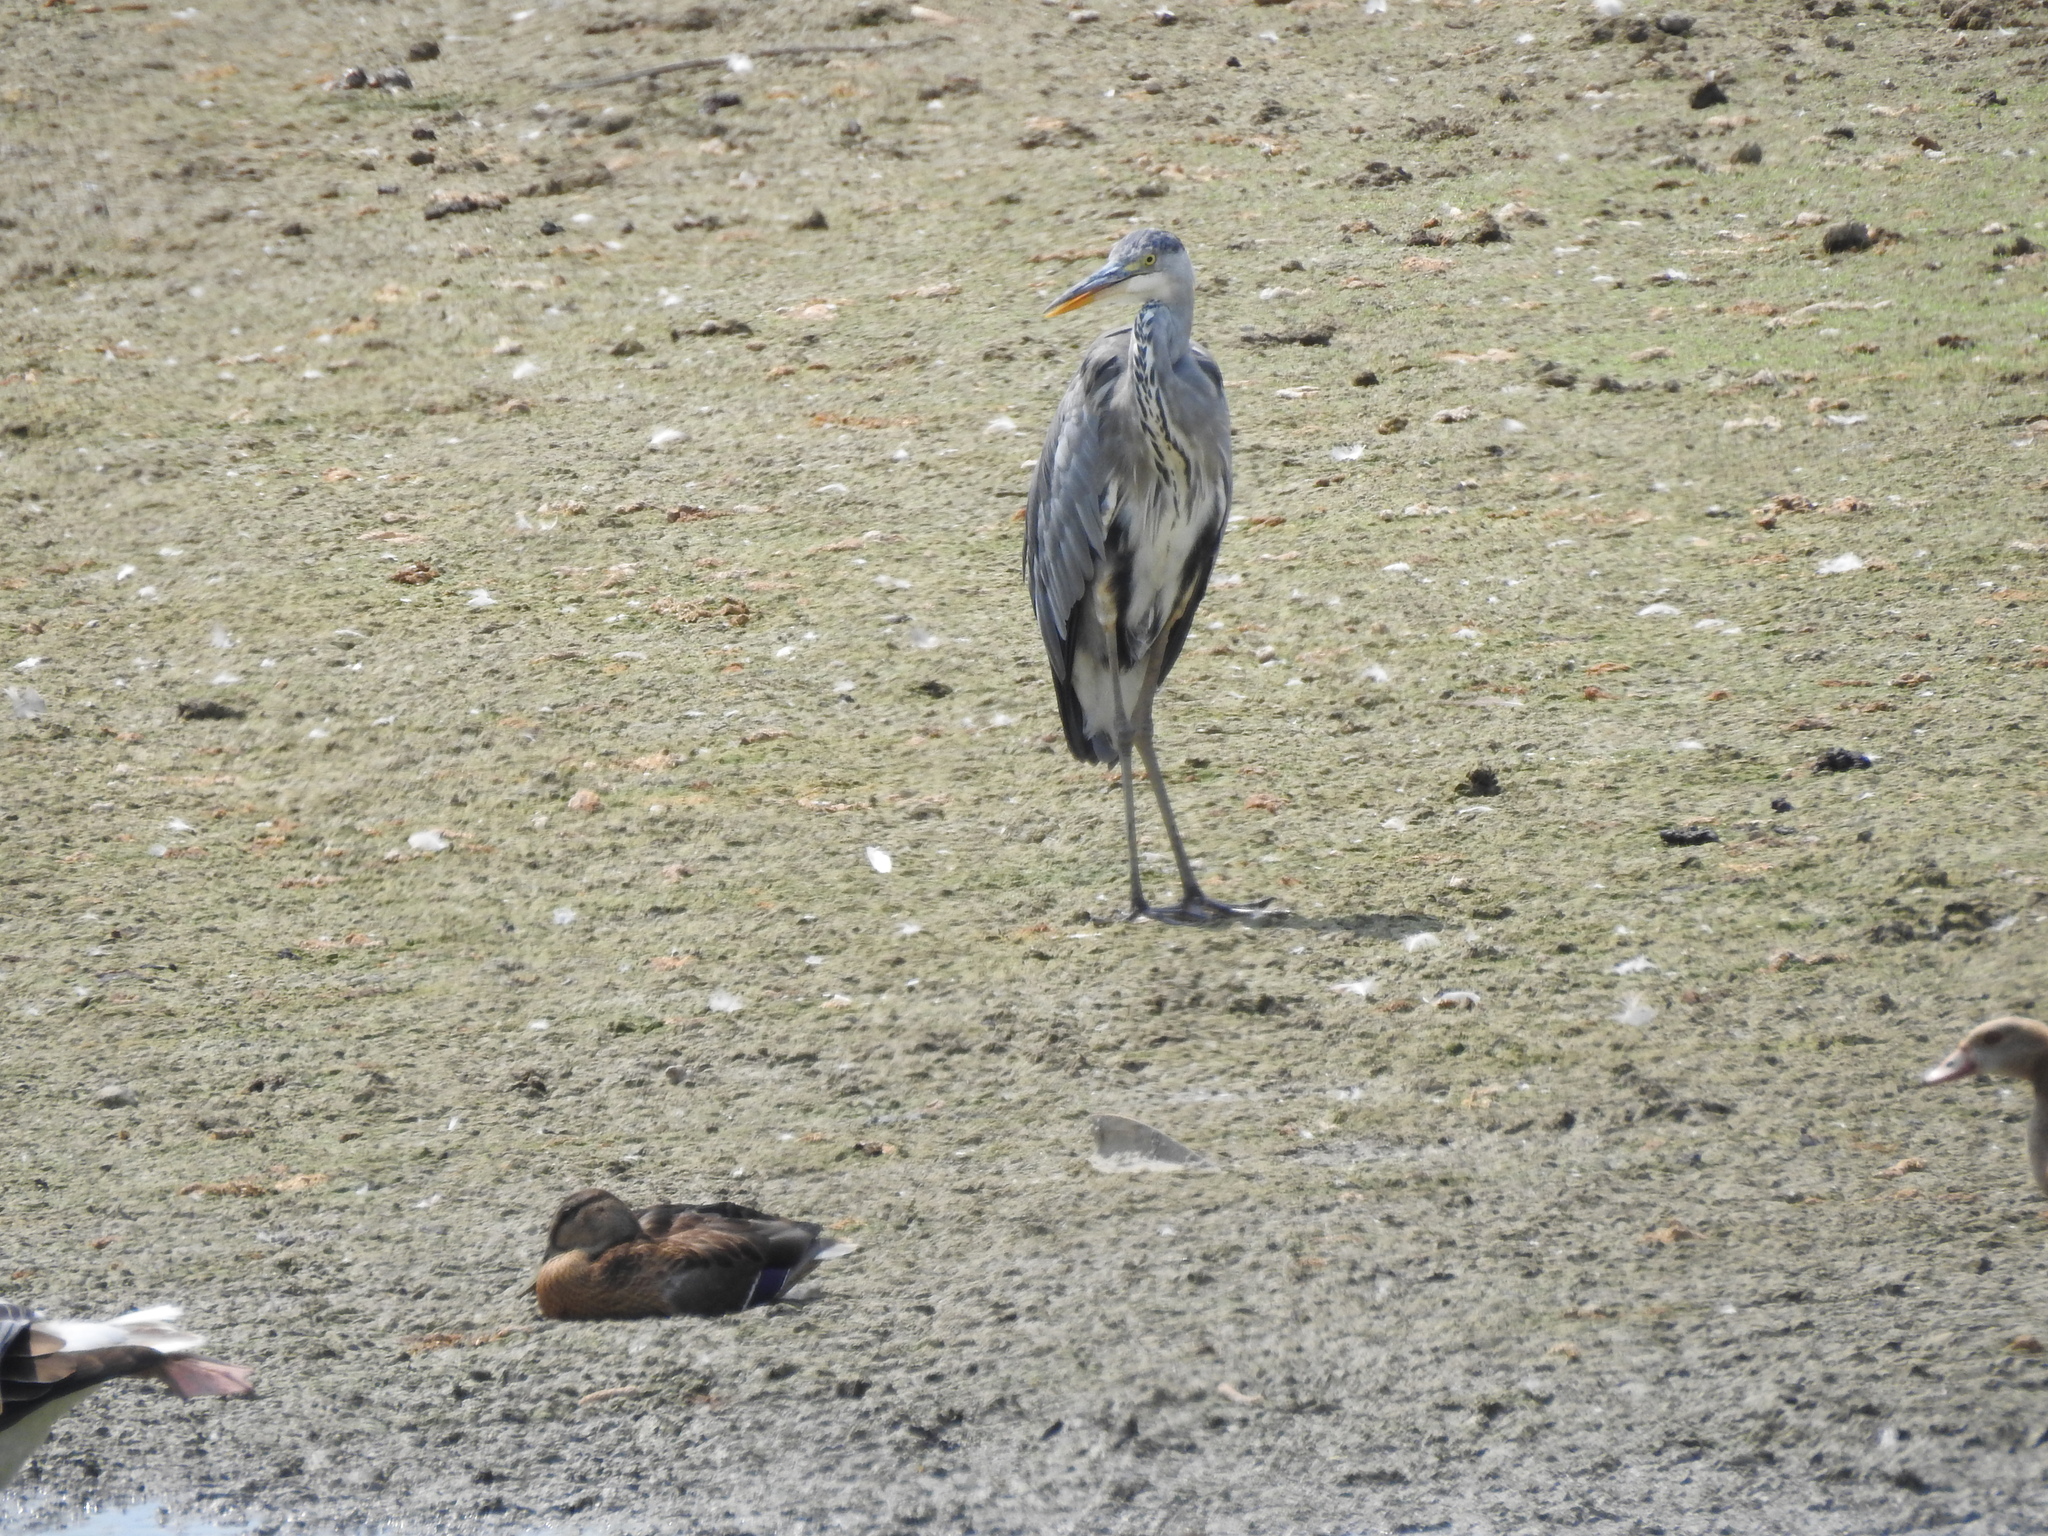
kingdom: Animalia
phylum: Chordata
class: Aves
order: Pelecaniformes
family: Ardeidae
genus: Ardea
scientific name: Ardea cinerea
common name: Grey heron
